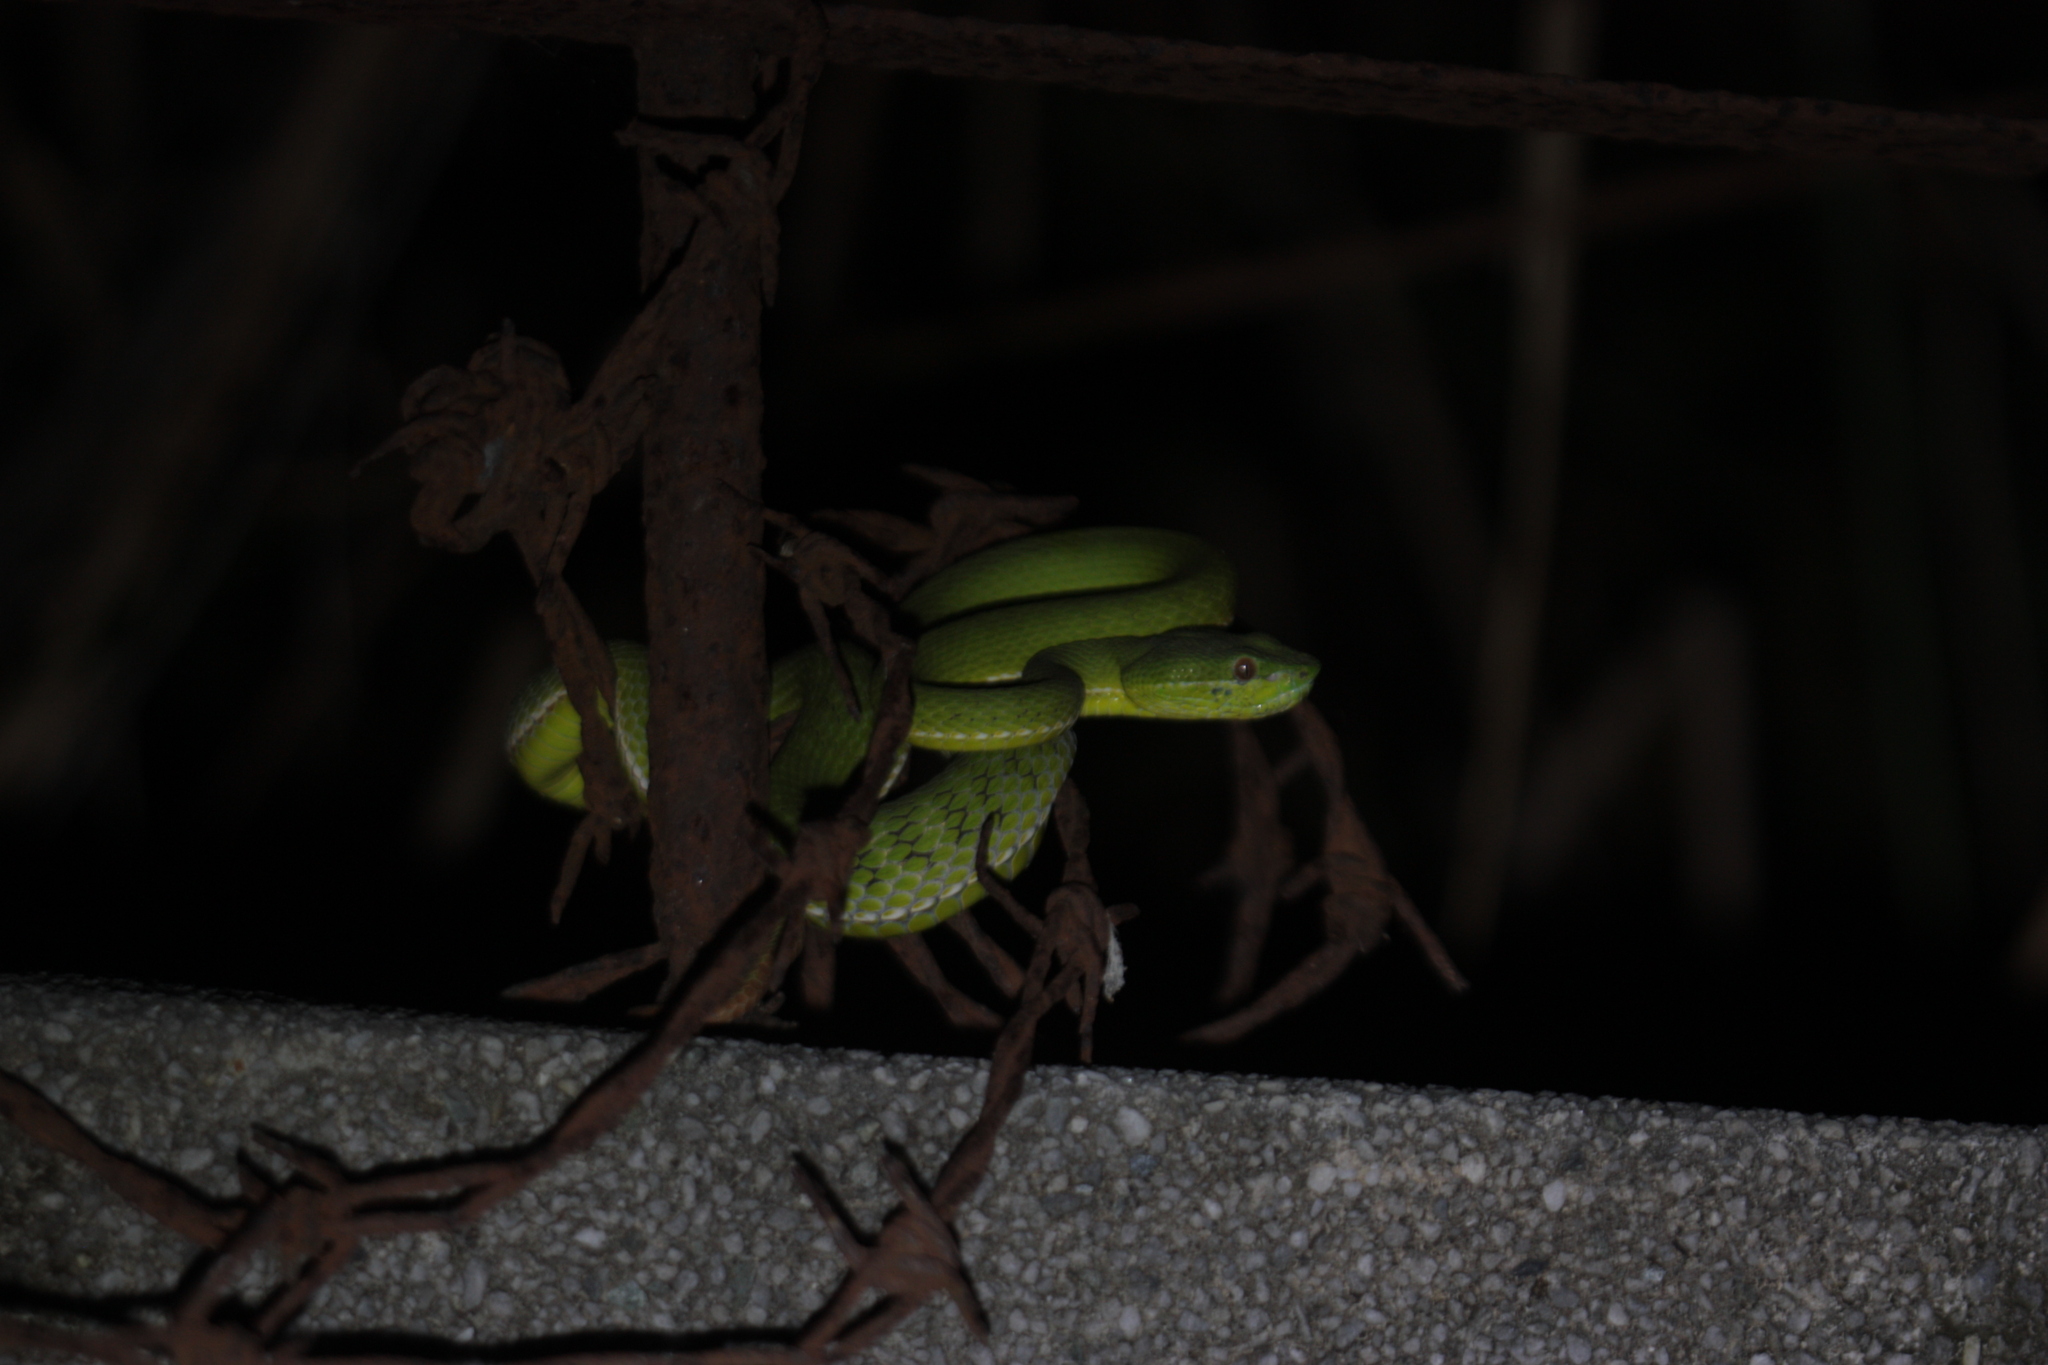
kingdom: Animalia
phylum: Chordata
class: Squamata
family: Viperidae
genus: Trimeresurus
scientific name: Trimeresurus stejnegeri
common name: Chen’s bamboo pit viper
